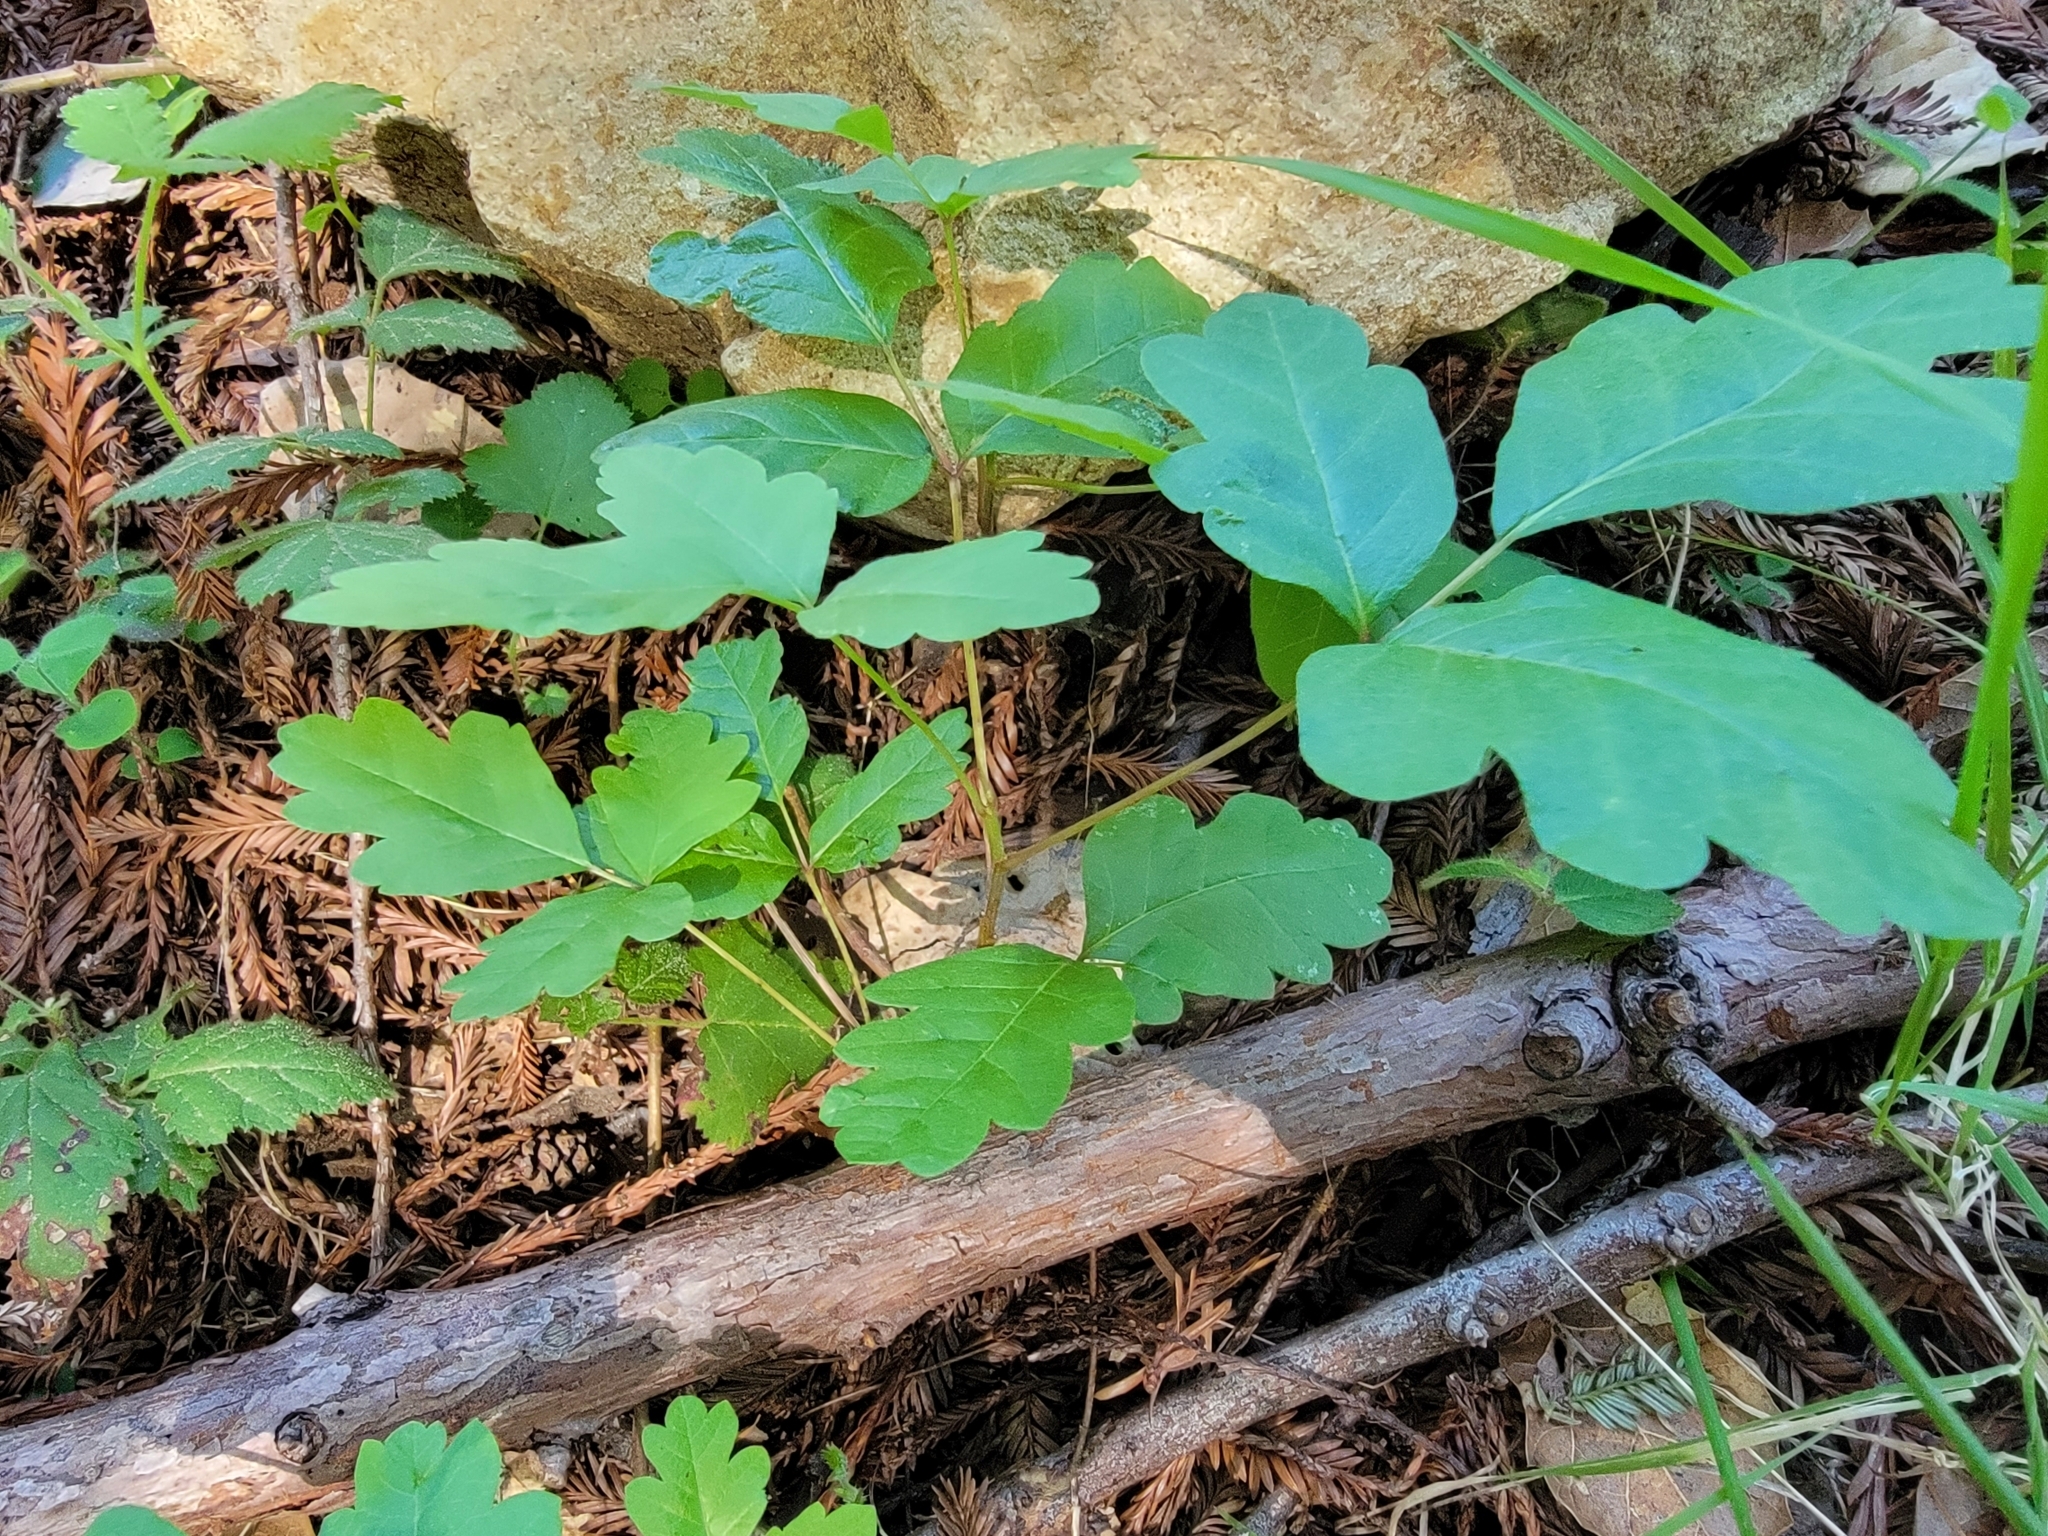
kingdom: Plantae
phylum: Tracheophyta
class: Magnoliopsida
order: Sapindales
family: Anacardiaceae
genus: Toxicodendron
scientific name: Toxicodendron diversilobum
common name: Pacific poison-oak
